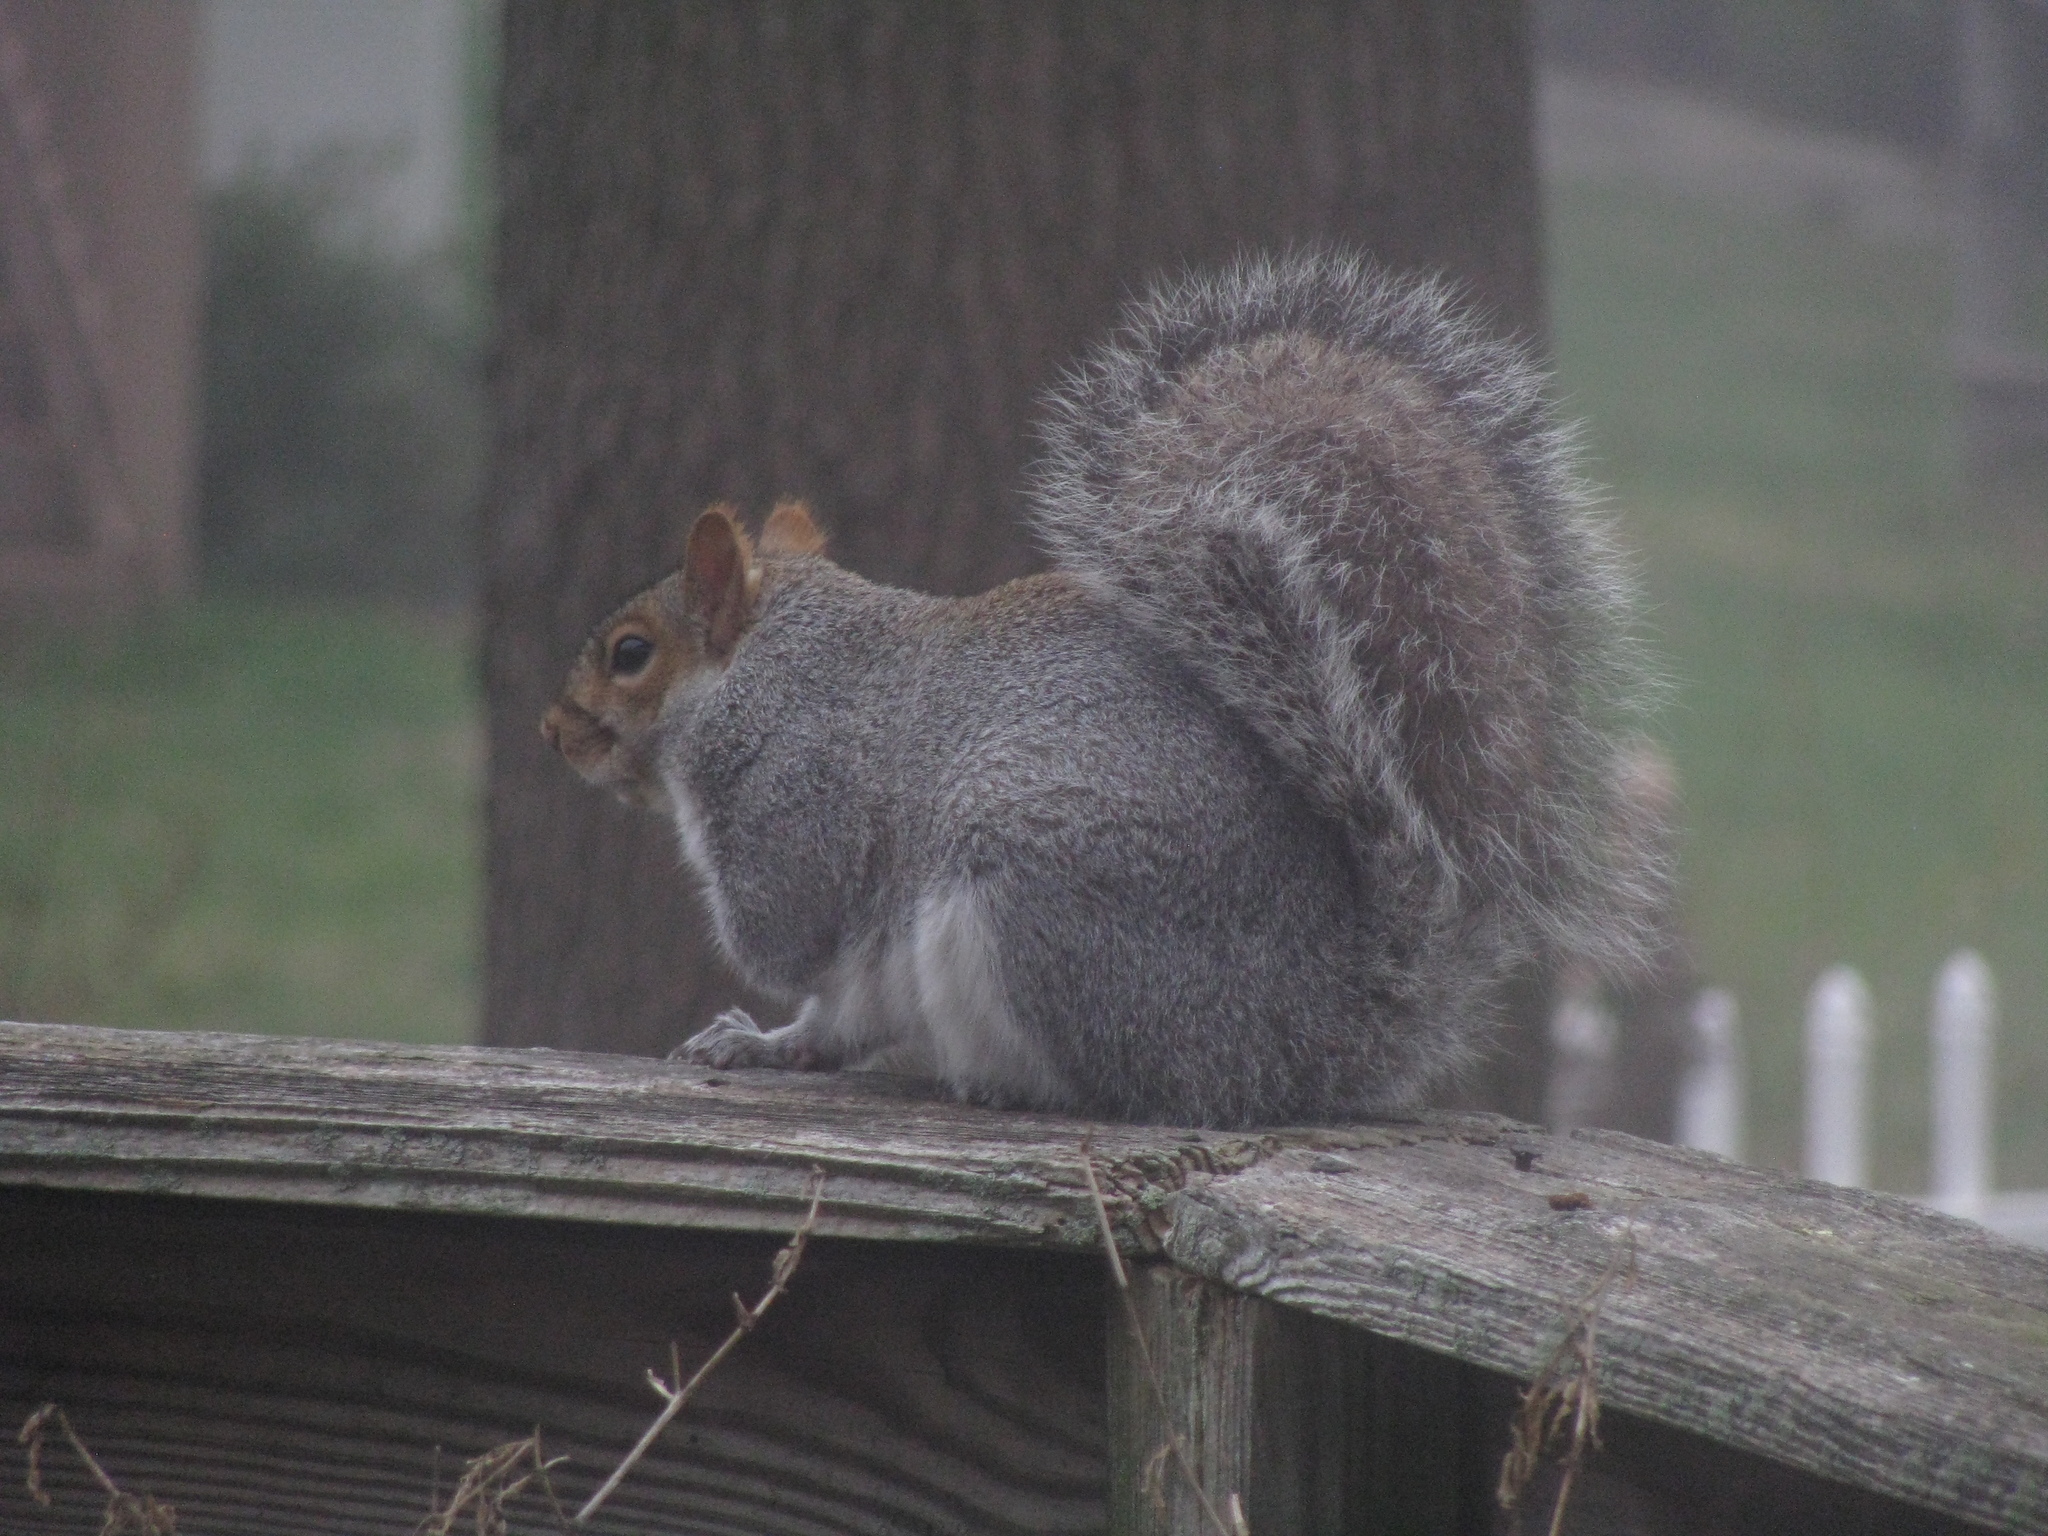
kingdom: Animalia
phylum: Chordata
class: Mammalia
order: Rodentia
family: Sciuridae
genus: Sciurus
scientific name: Sciurus carolinensis
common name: Eastern gray squirrel
